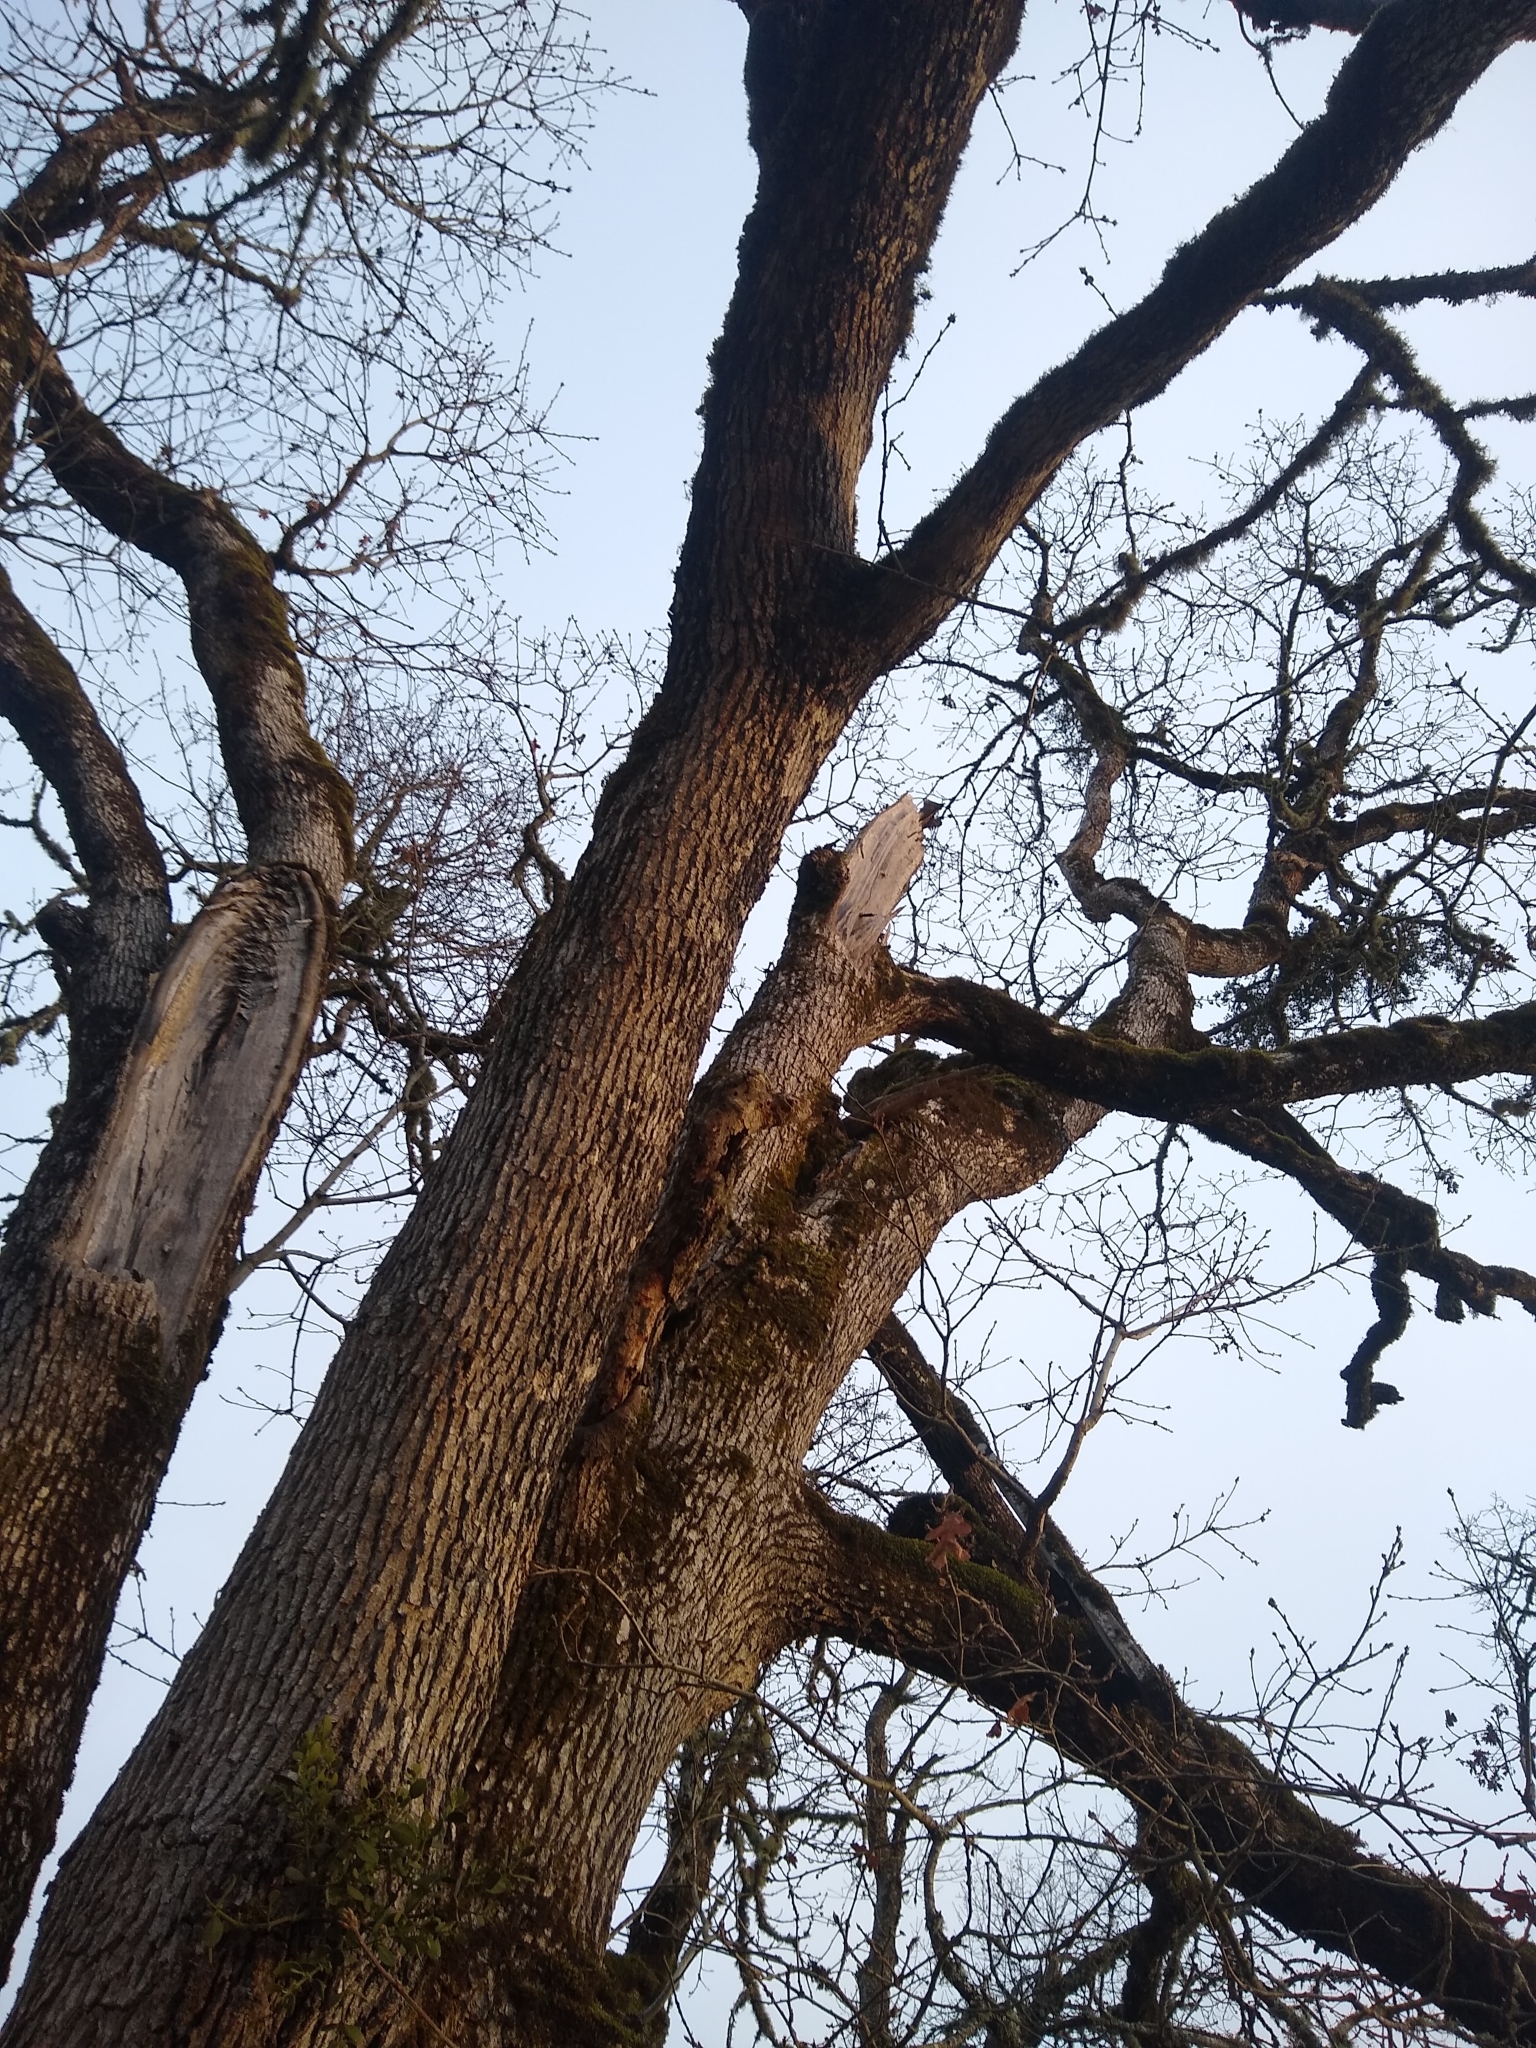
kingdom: Plantae
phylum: Tracheophyta
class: Magnoliopsida
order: Fagales
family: Fagaceae
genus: Quercus
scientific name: Quercus garryana
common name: Garry oak
